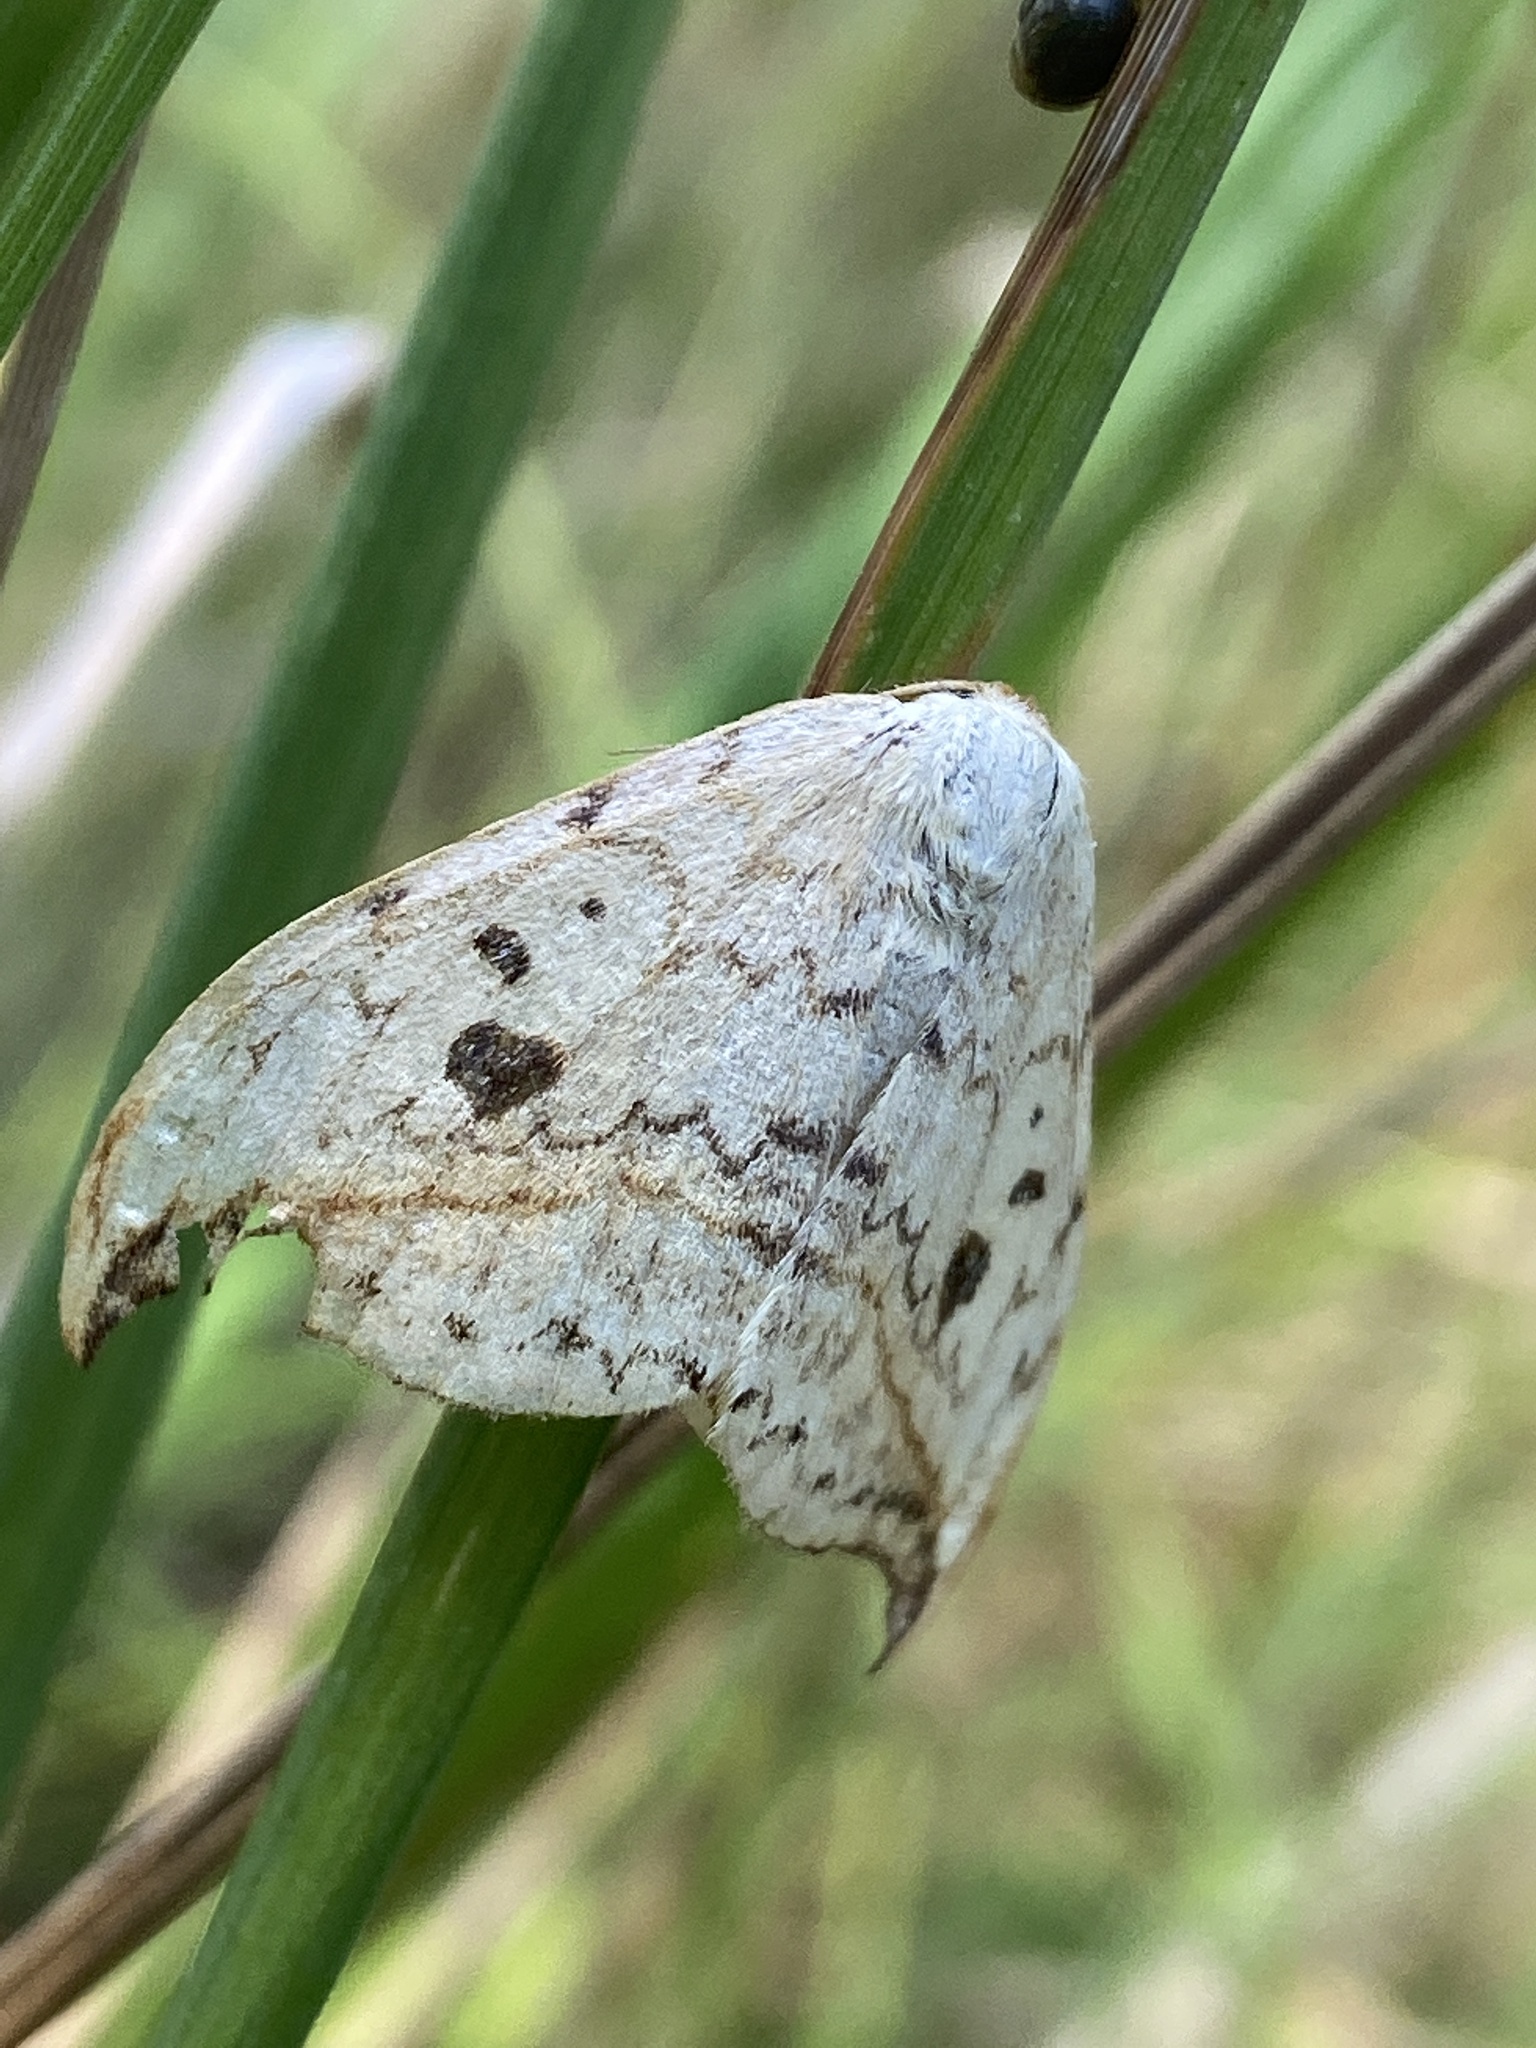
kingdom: Animalia
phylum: Arthropoda
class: Insecta
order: Lepidoptera
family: Drepanidae
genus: Drepana
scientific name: Drepana falcataria
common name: Pebble hook-tip
